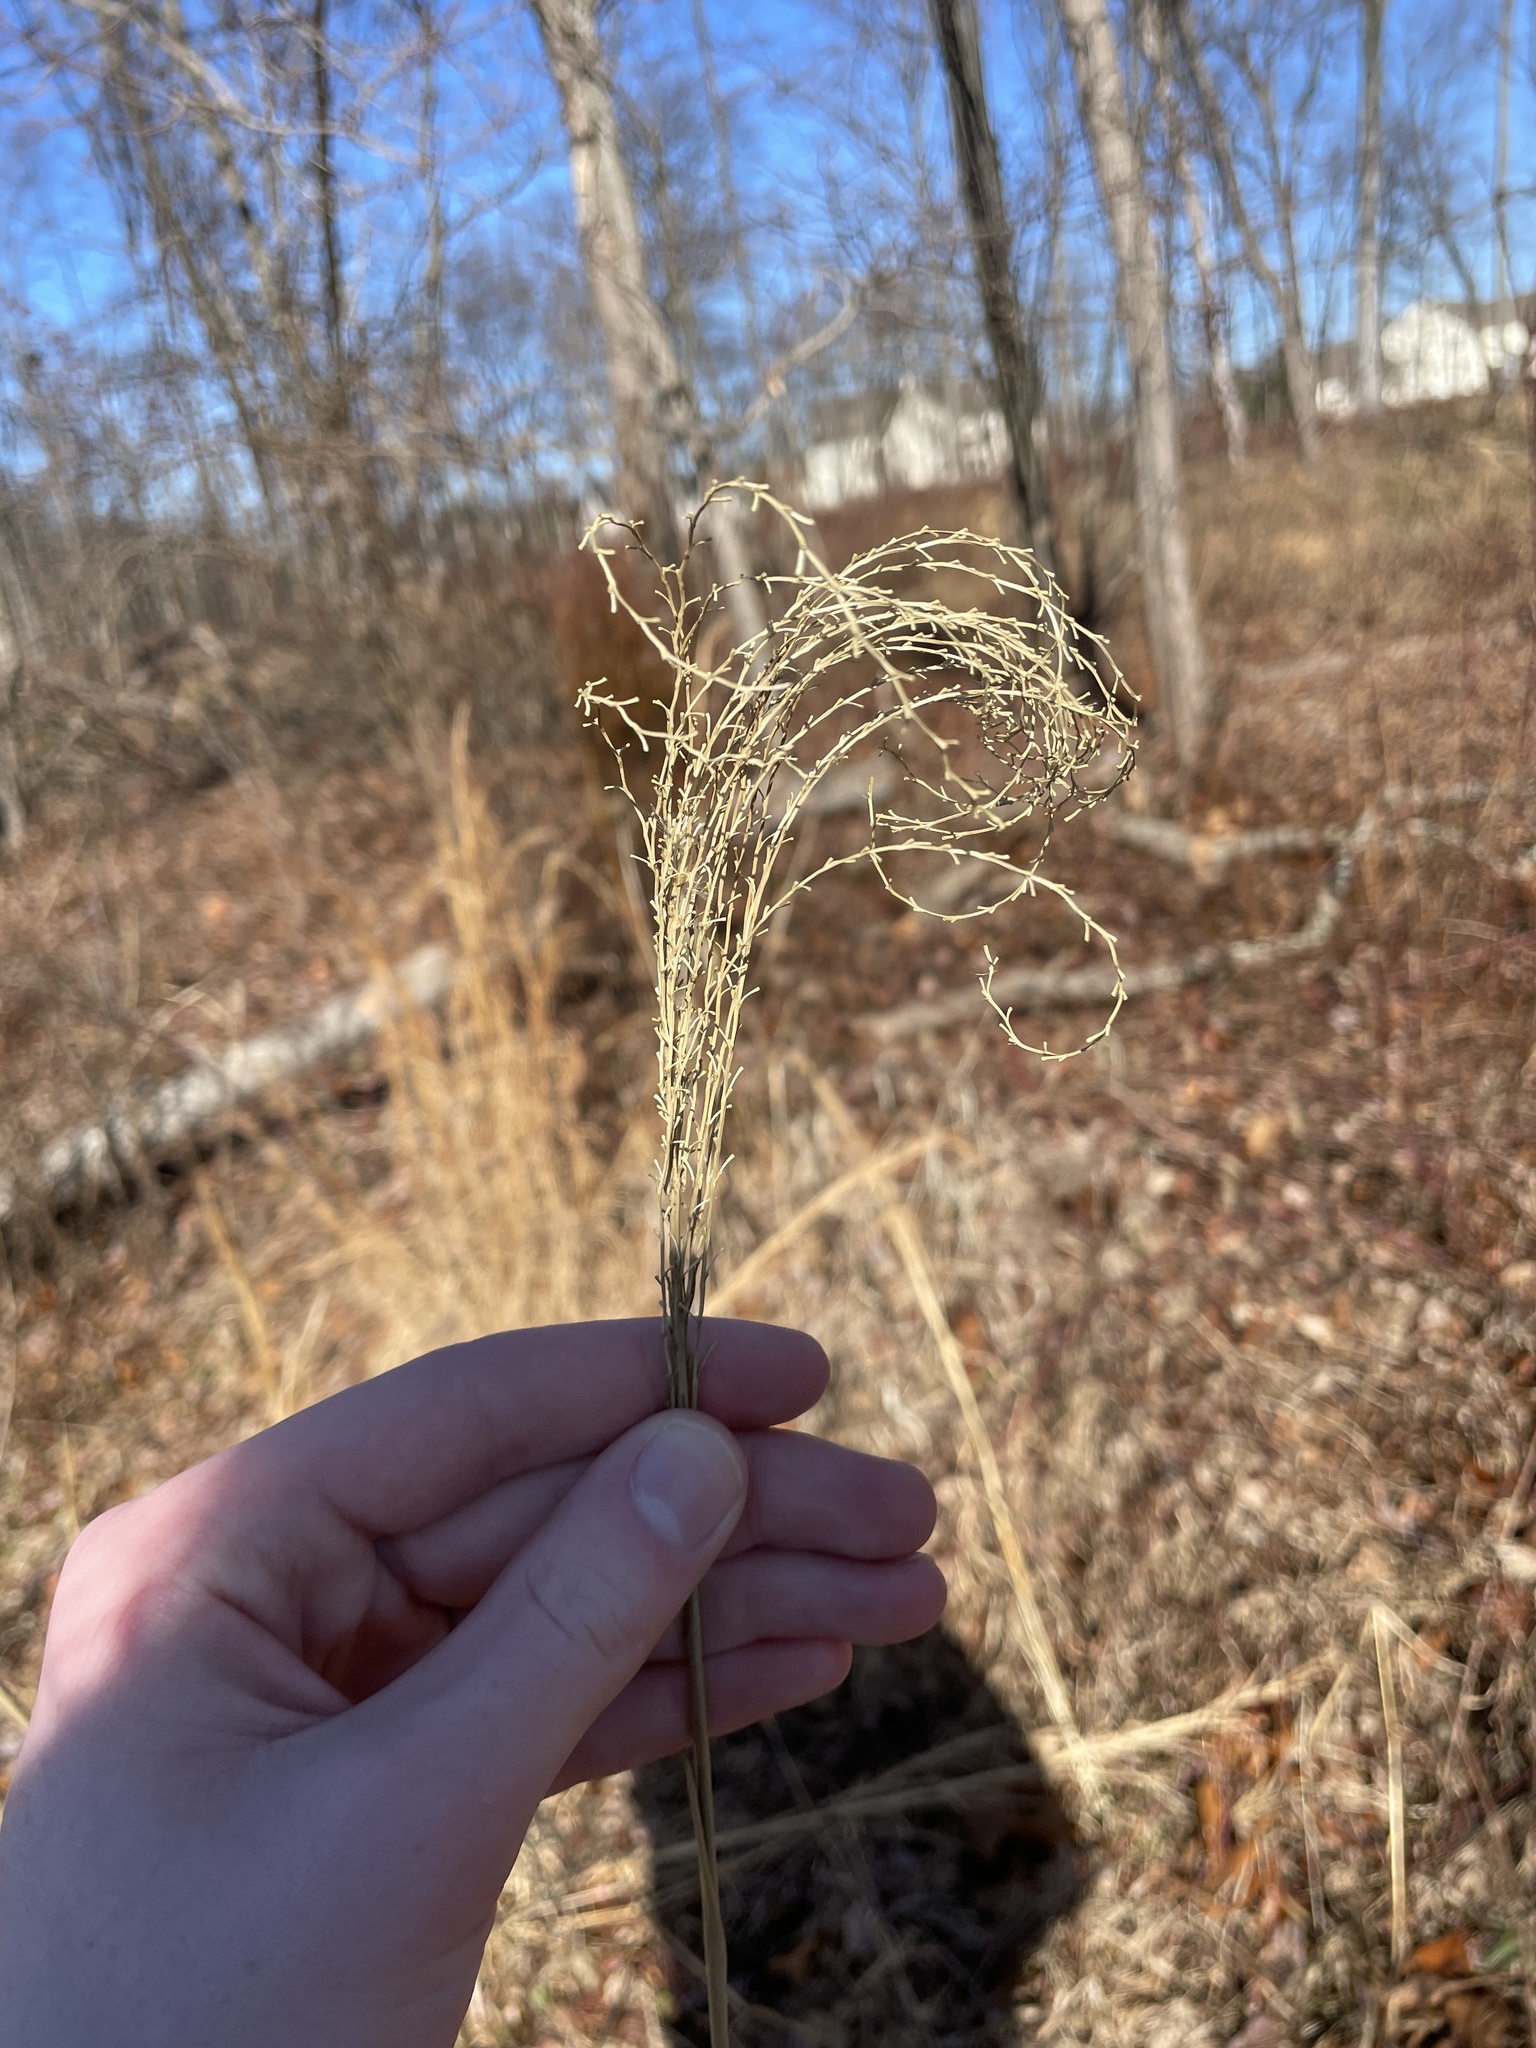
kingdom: Plantae
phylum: Tracheophyta
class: Liliopsida
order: Poales
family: Poaceae
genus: Miscanthus
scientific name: Miscanthus sinensis
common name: Chinese silvergrass
